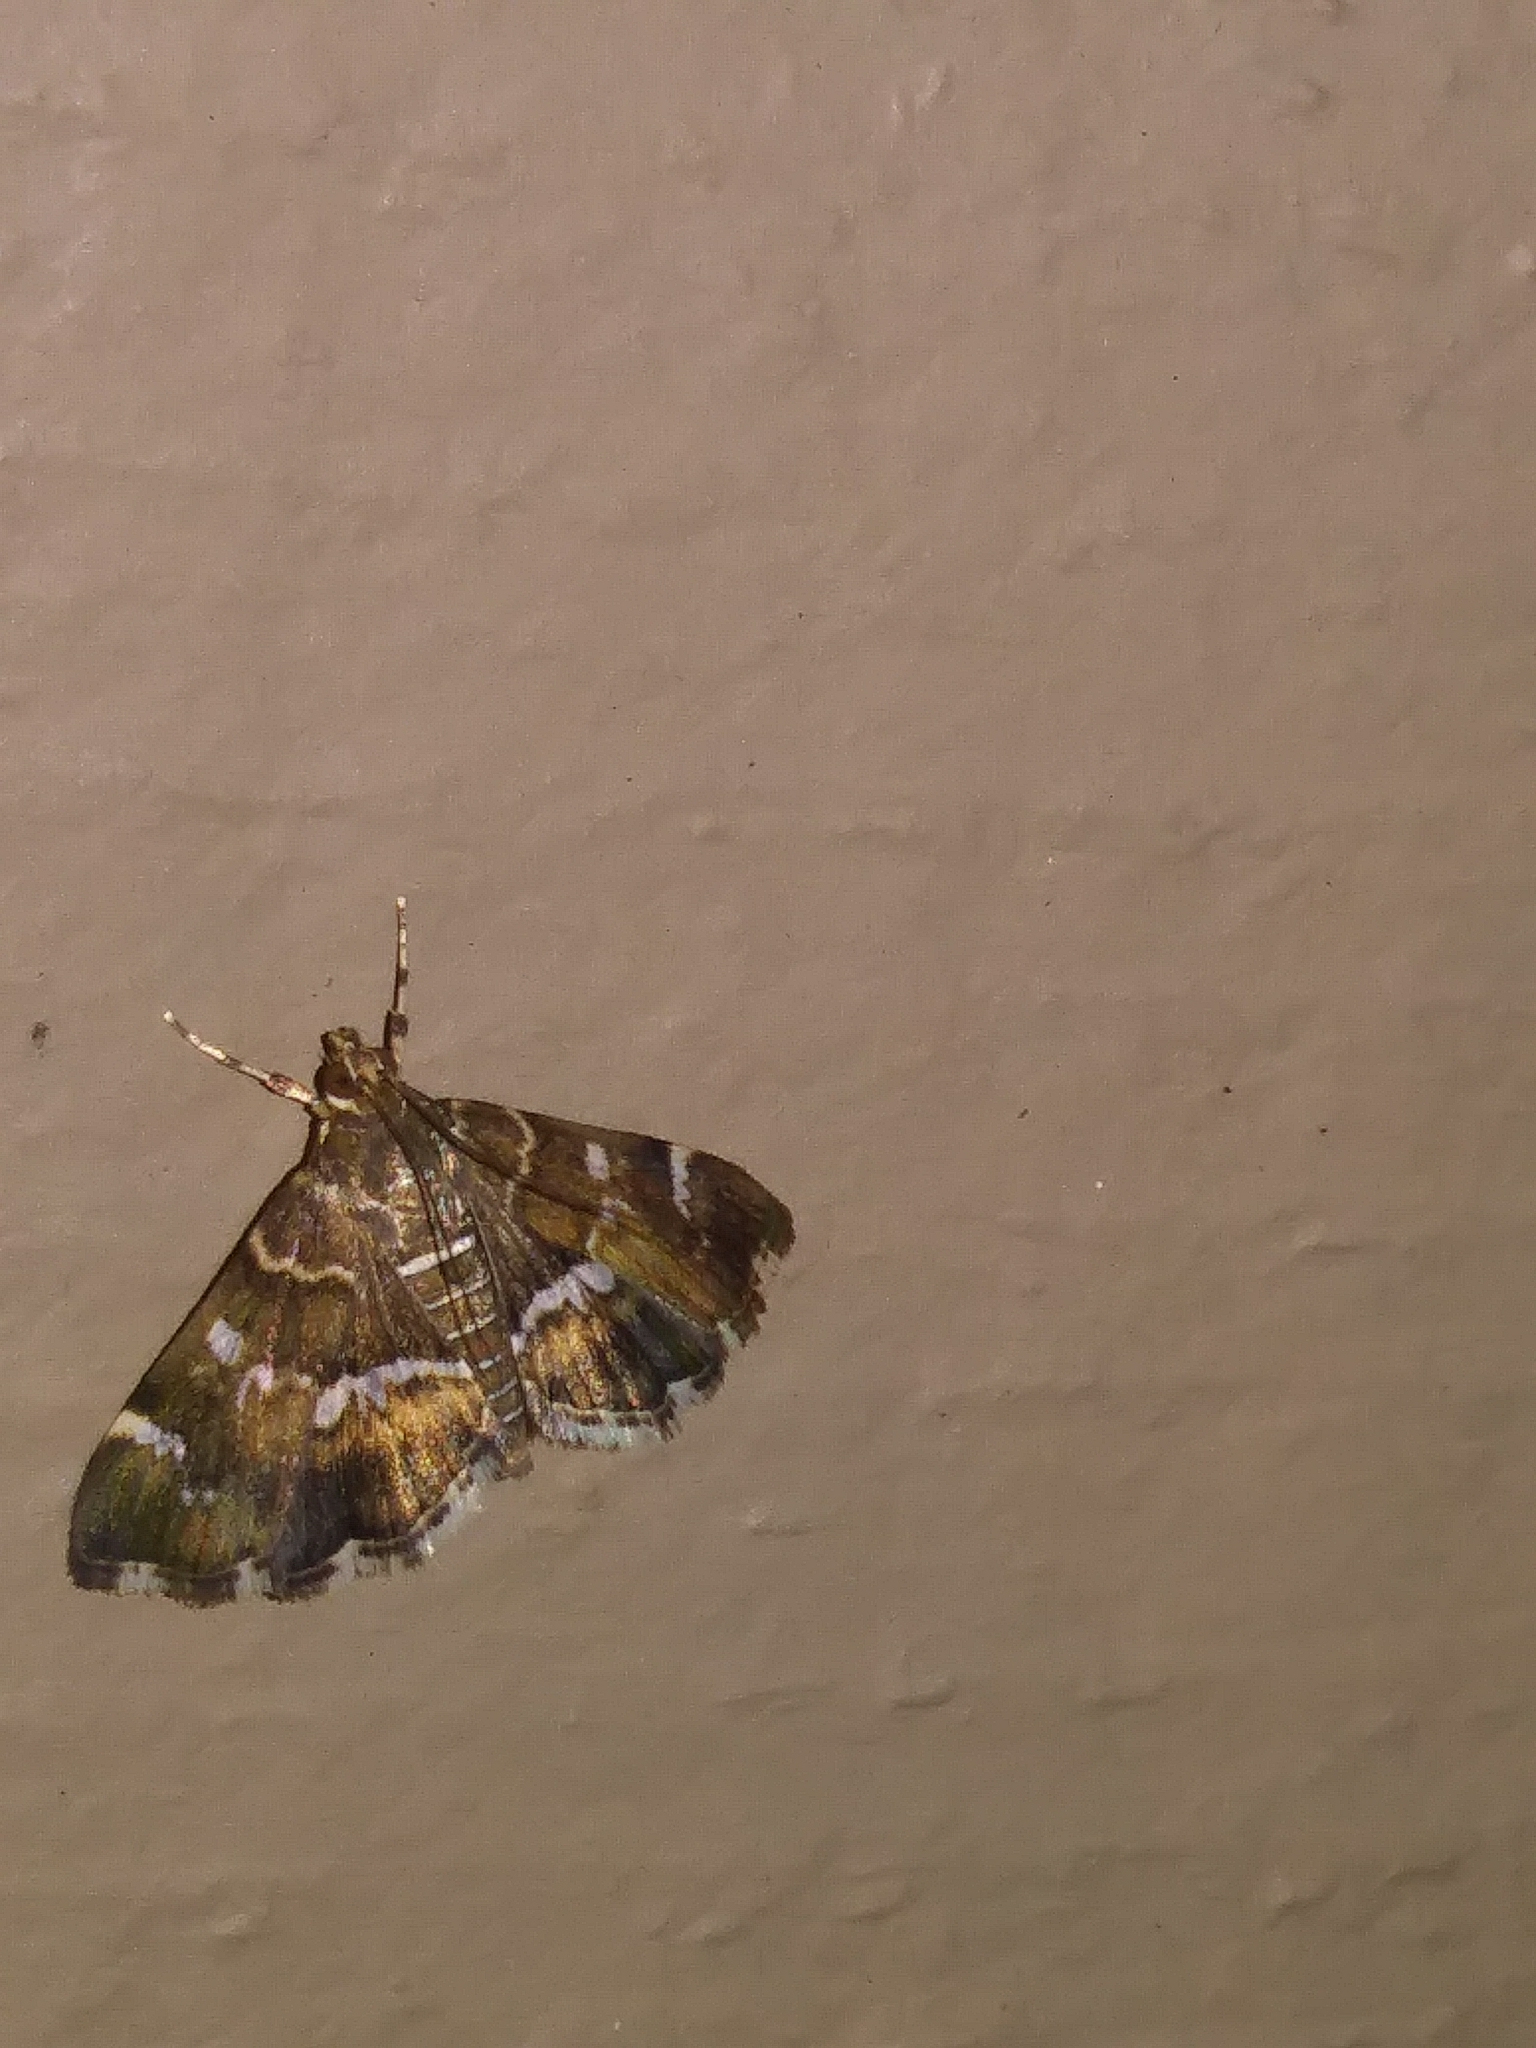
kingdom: Animalia
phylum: Arthropoda
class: Insecta
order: Lepidoptera
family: Crambidae
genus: Hymenia
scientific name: Hymenia perspectalis
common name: Spotted beet webworm
